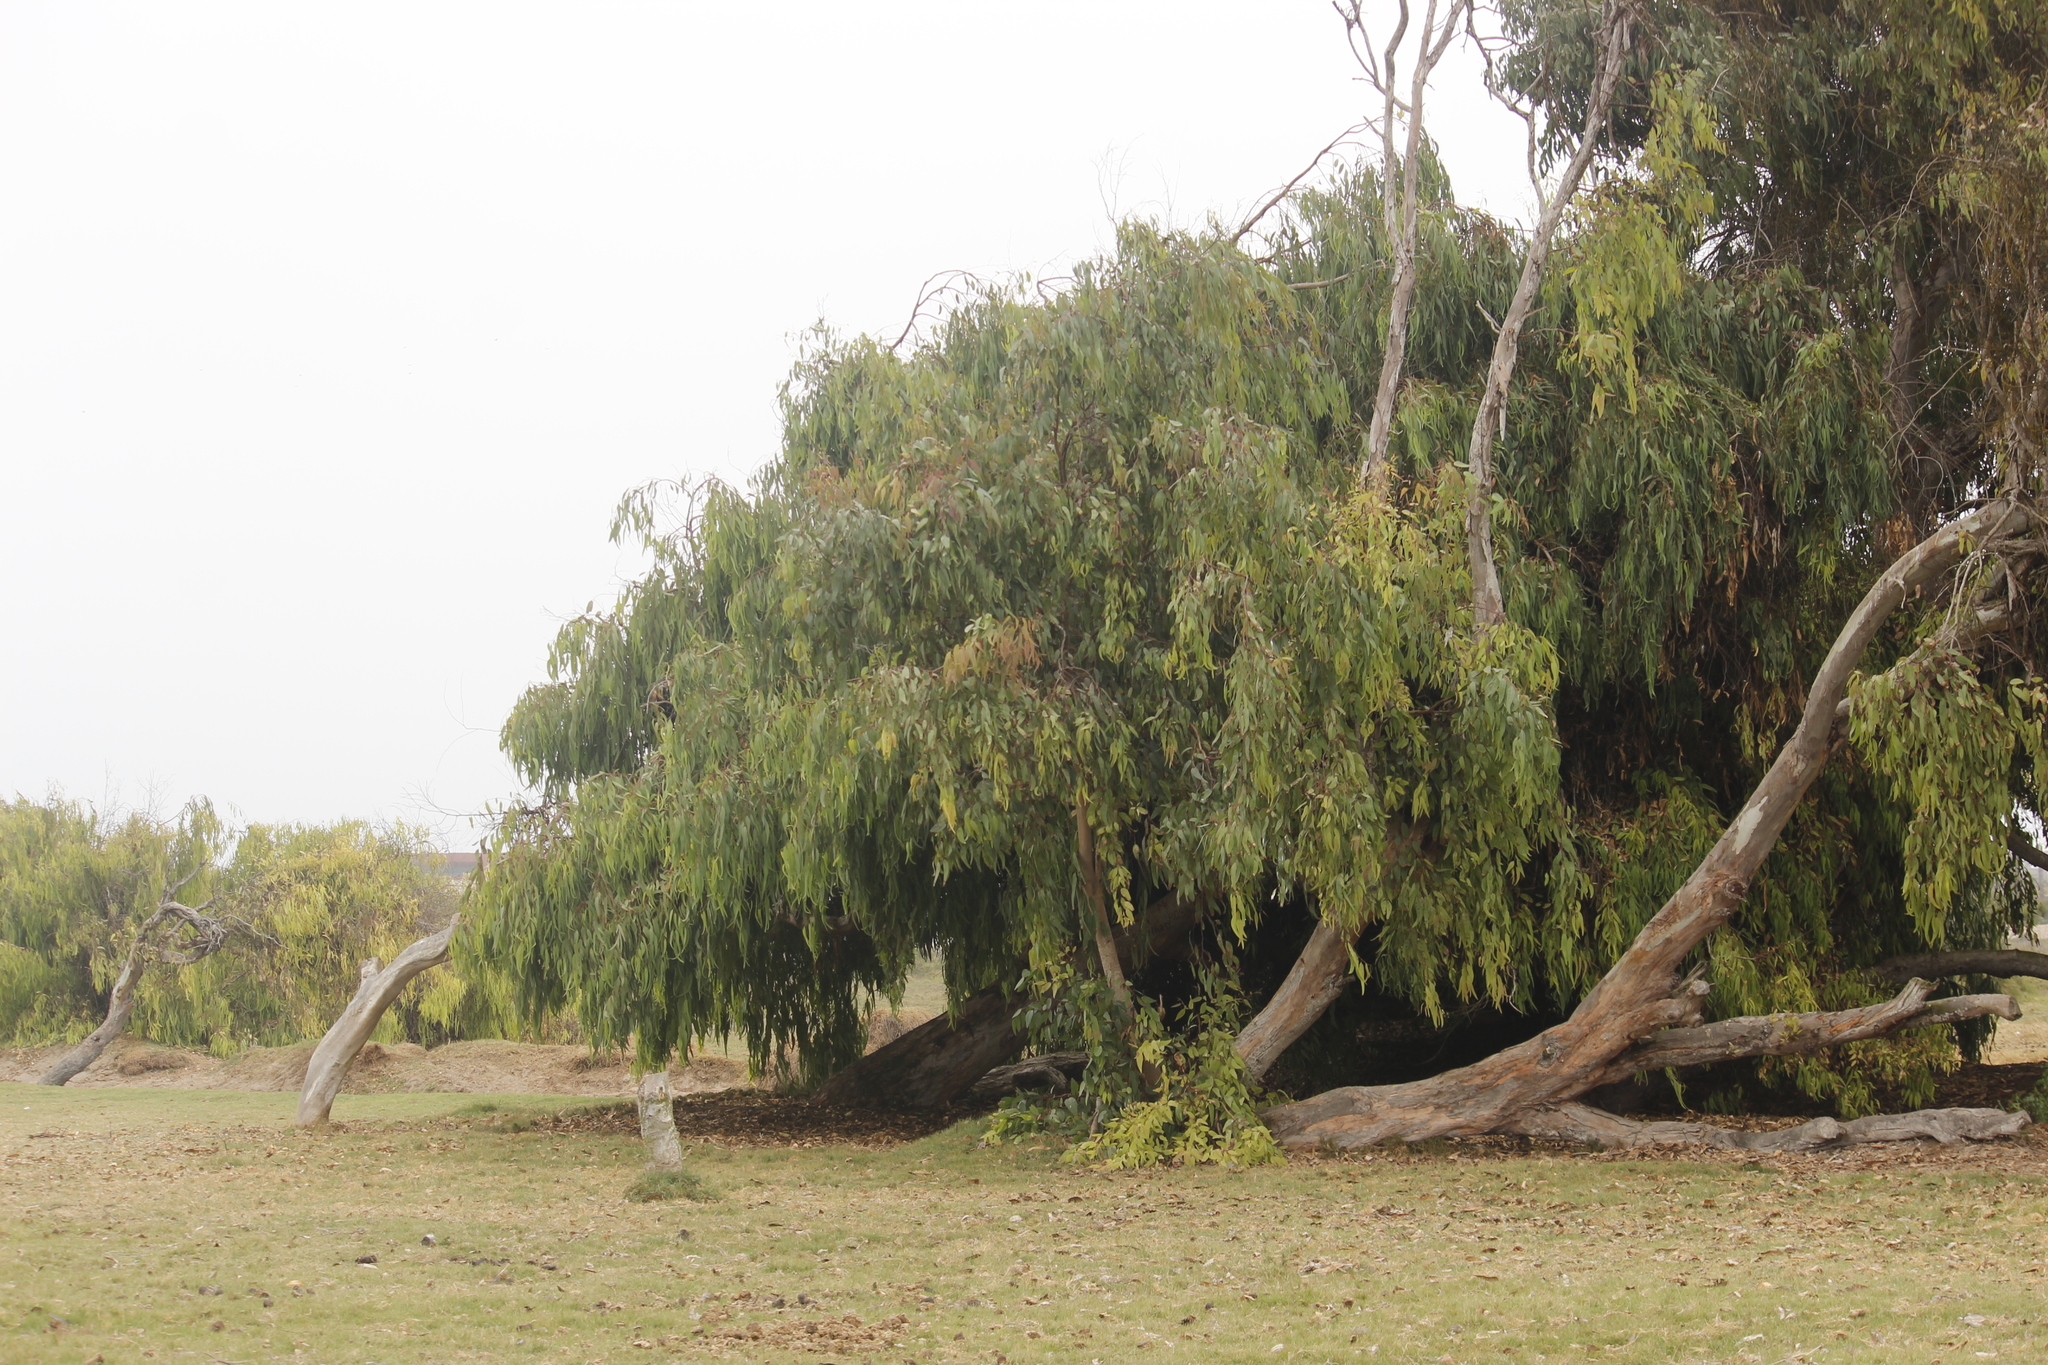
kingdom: Plantae
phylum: Tracheophyta
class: Magnoliopsida
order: Myrtales
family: Myrtaceae
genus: Eucalyptus
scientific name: Eucalyptus globulus
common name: Southern blue-gum
